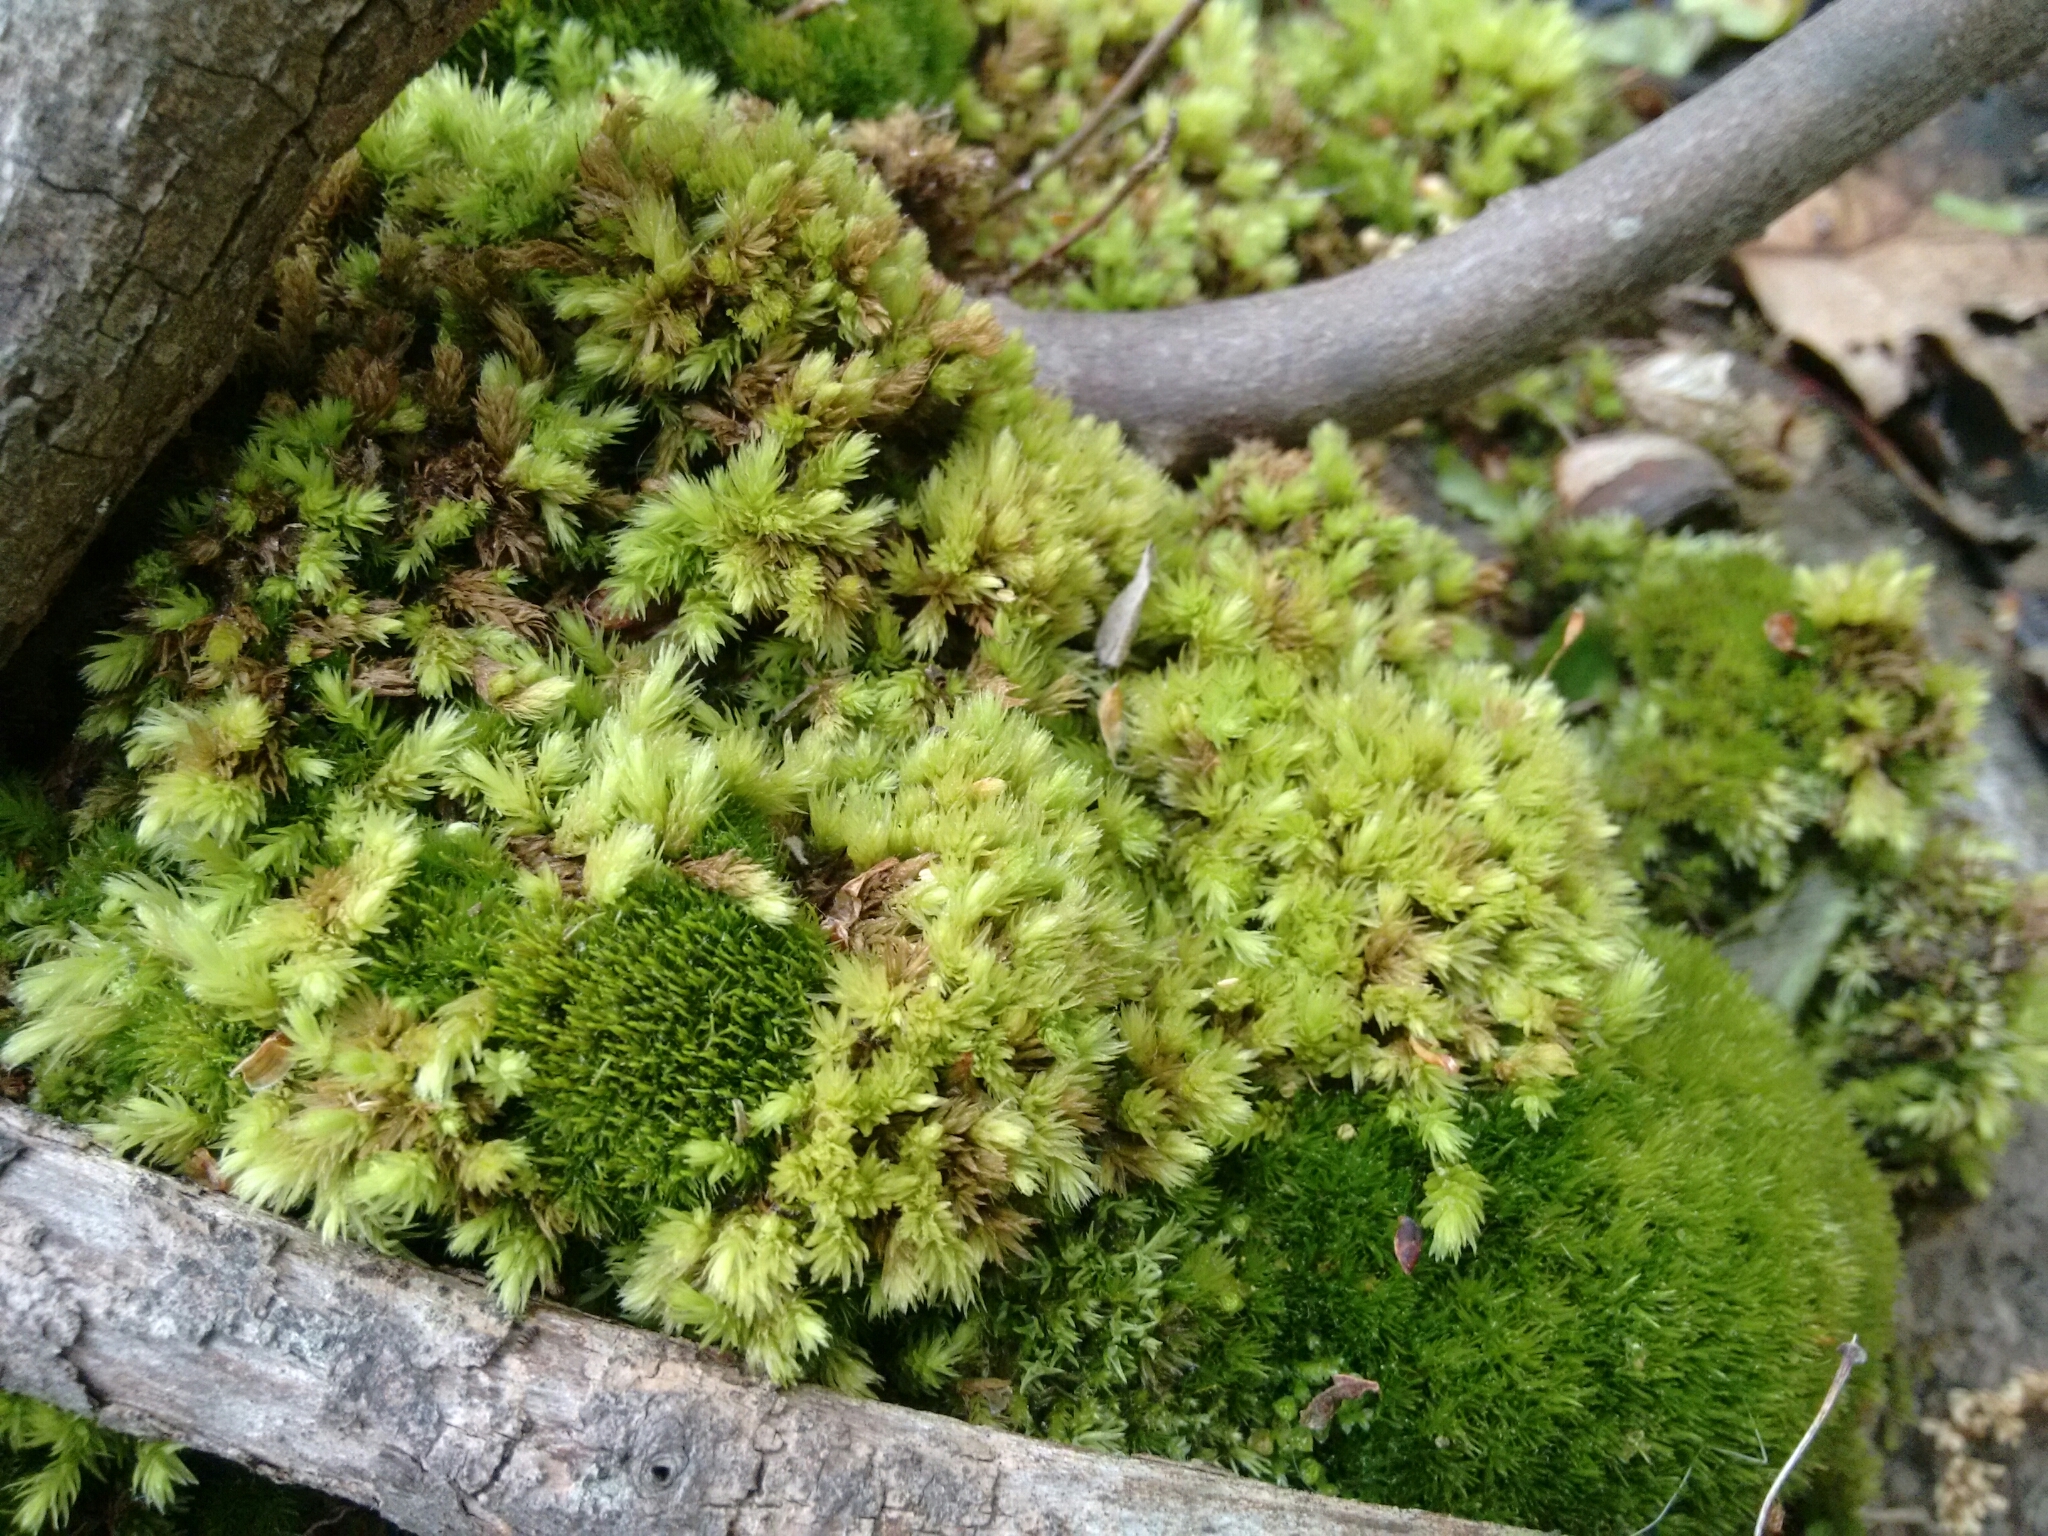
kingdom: Plantae
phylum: Bryophyta
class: Bryopsida
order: Aulacomniales
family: Aulacomniaceae
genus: Aulacomnium
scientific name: Aulacomnium palustre
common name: Bog groove-moss
